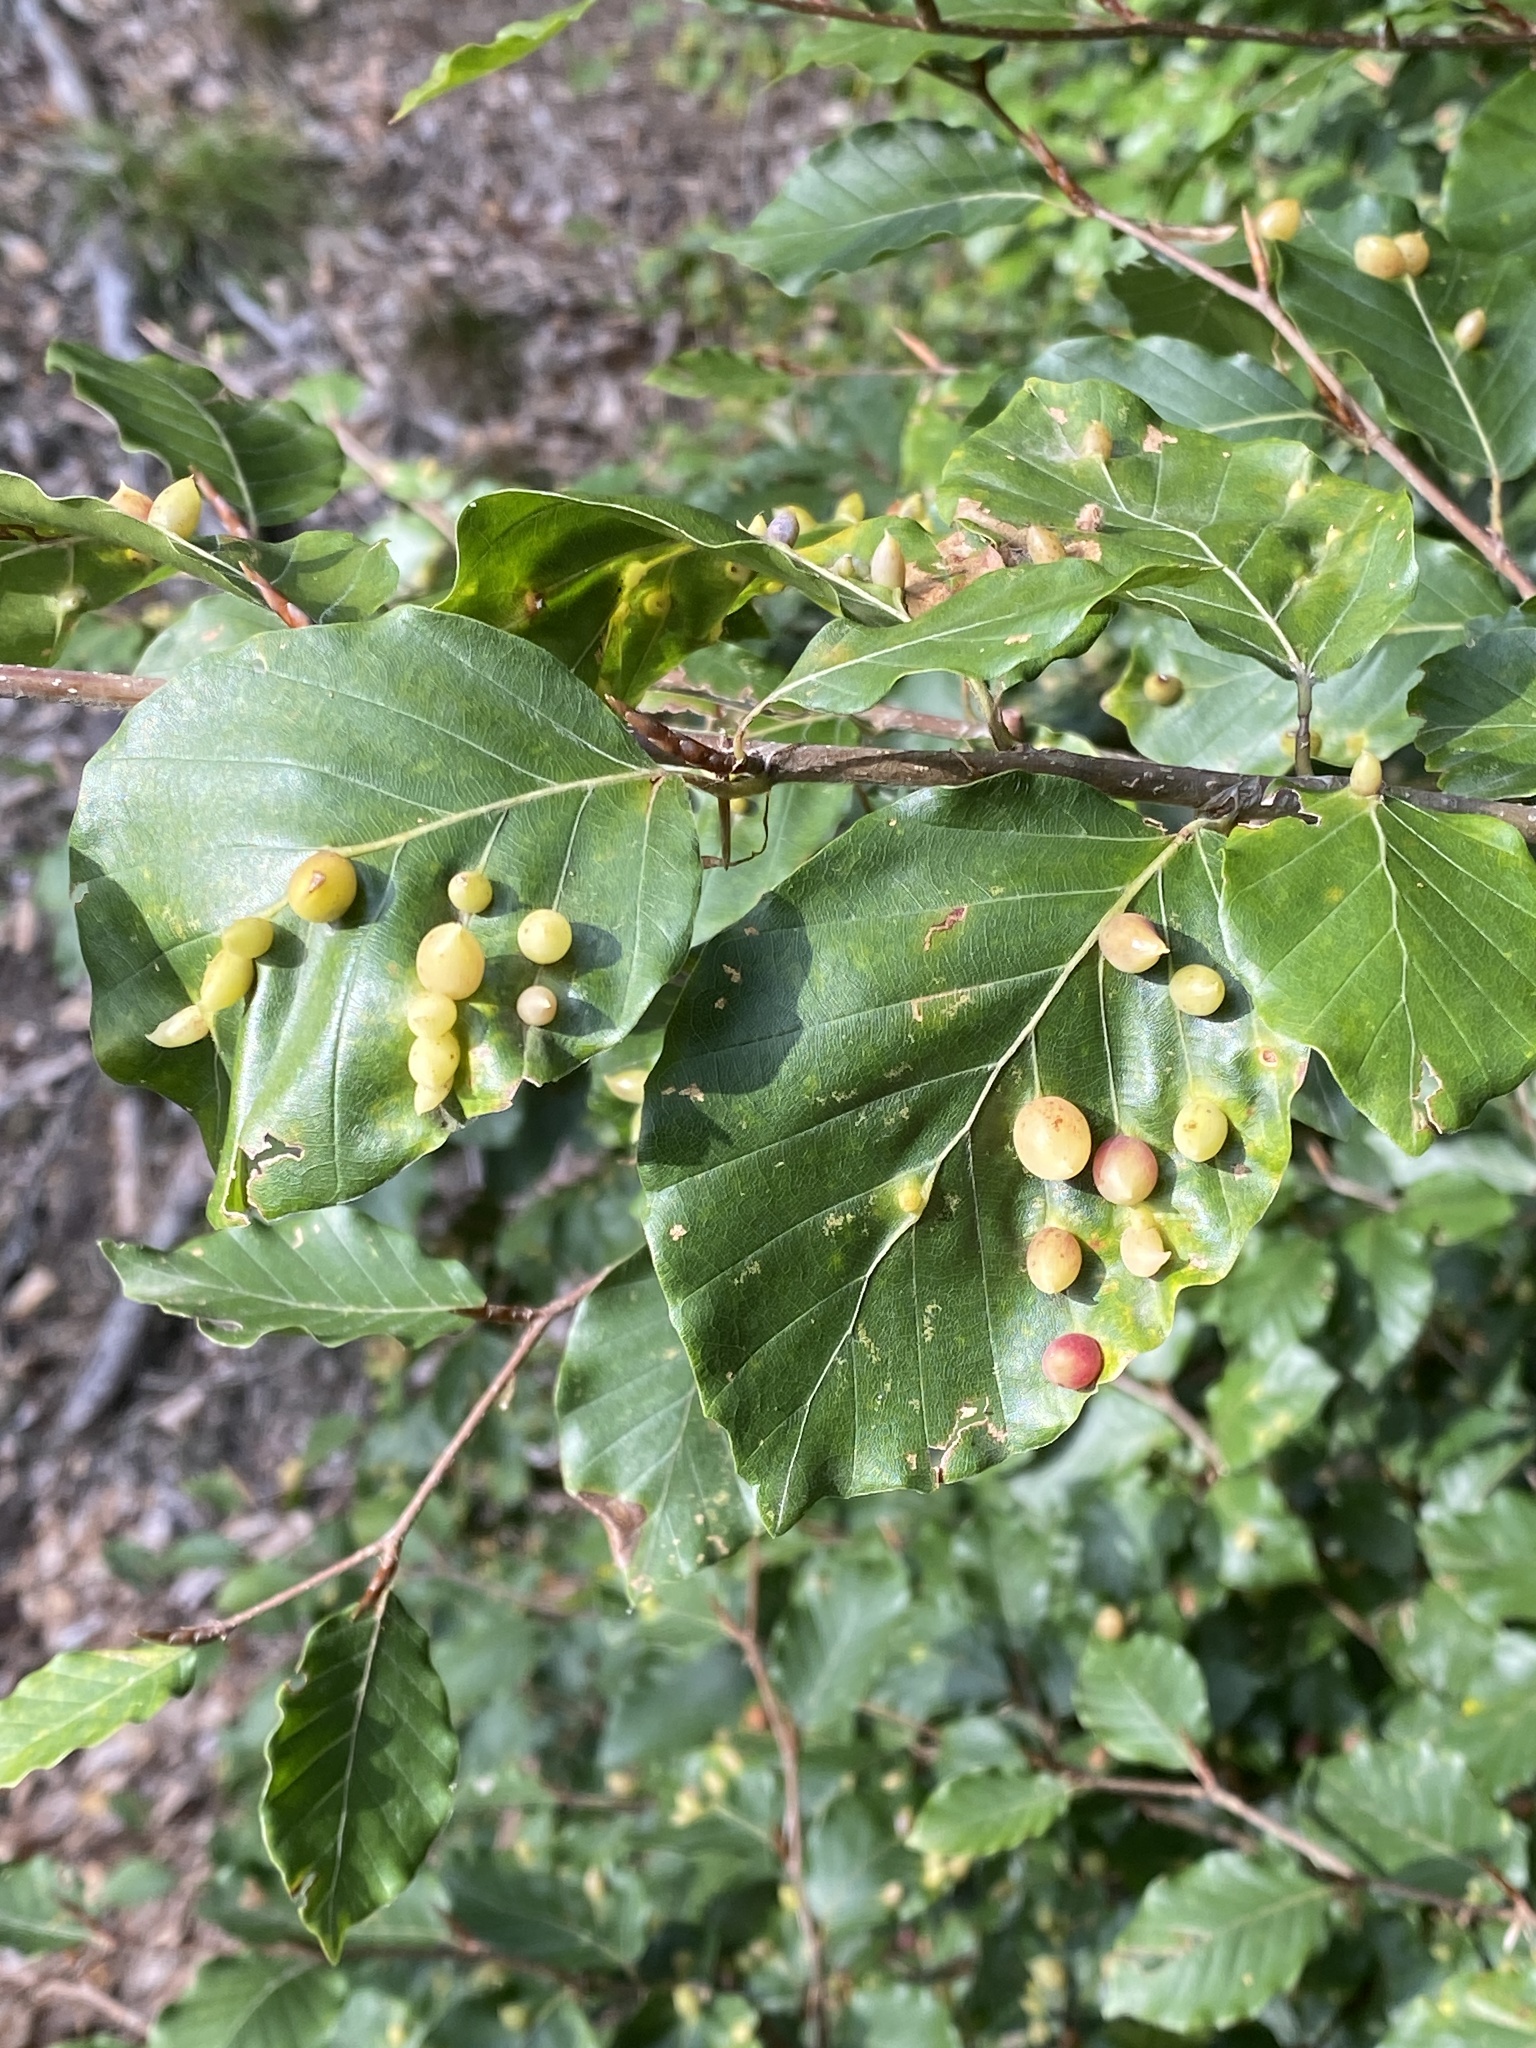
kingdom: Animalia
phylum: Arthropoda
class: Insecta
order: Diptera
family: Cecidomyiidae
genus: Mikiola
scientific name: Mikiola fagi
